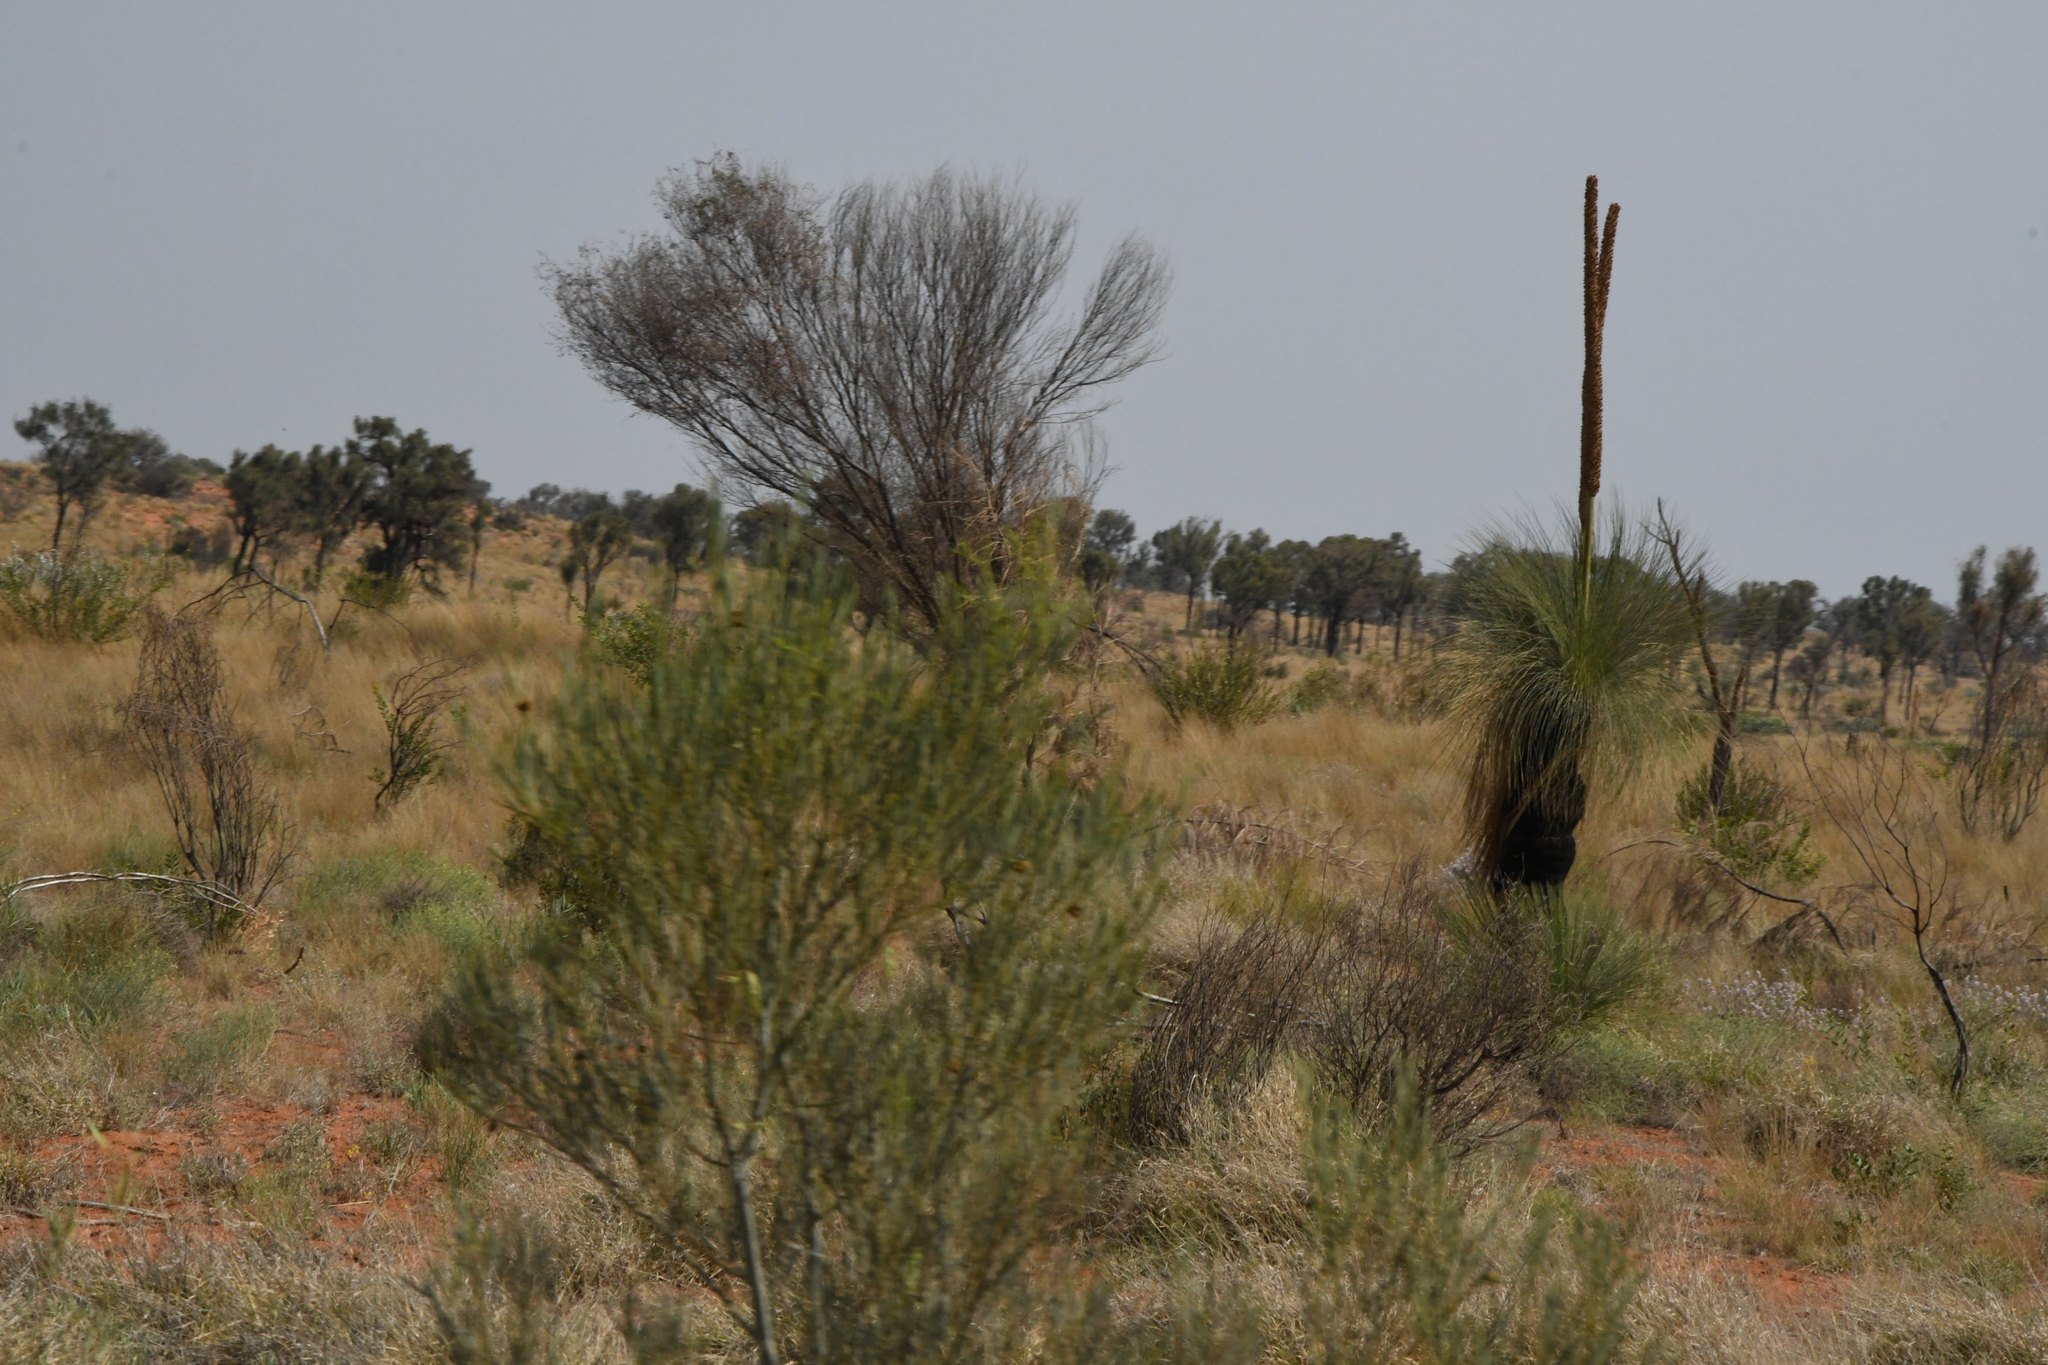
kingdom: Plantae
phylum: Tracheophyta
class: Liliopsida
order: Asparagales
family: Asphodelaceae
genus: Xanthorrhoea
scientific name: Xanthorrhoea thorntonii
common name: Cundeelee grass-tree
